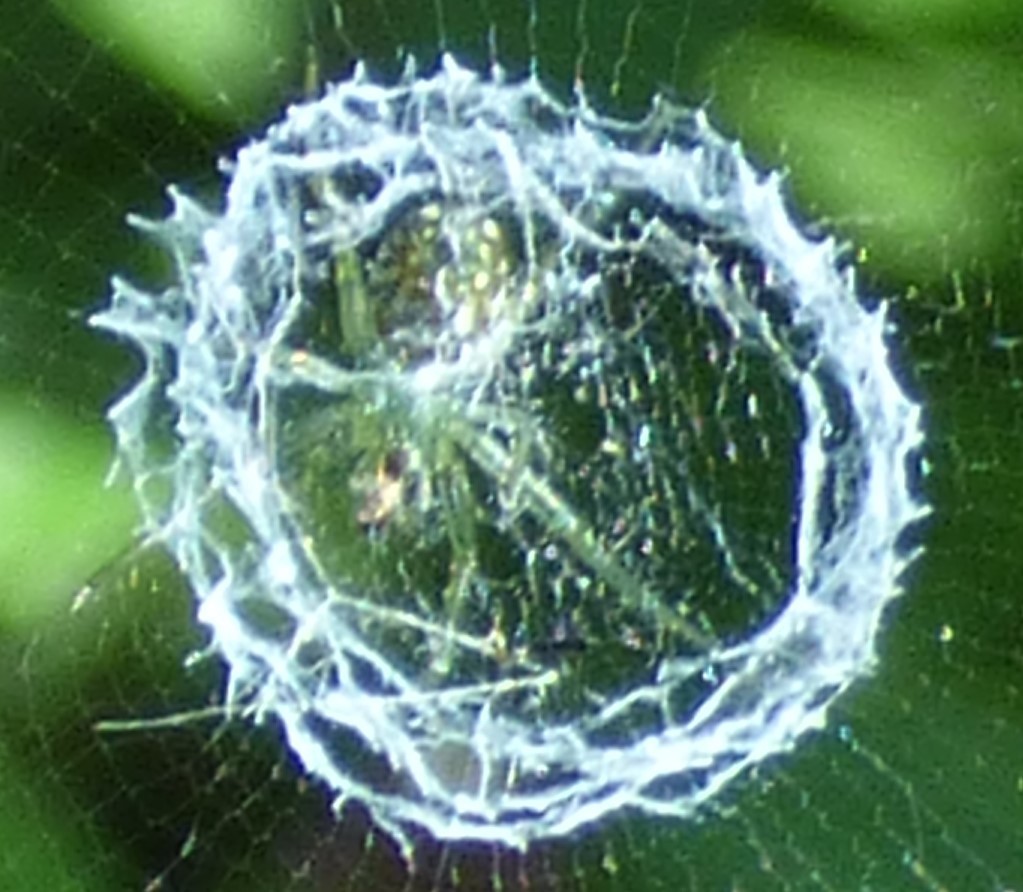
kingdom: Animalia
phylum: Arthropoda
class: Arachnida
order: Araneae
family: Araneidae
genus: Mangora
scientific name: Mangora gibberosa
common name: Lined orbweaver
